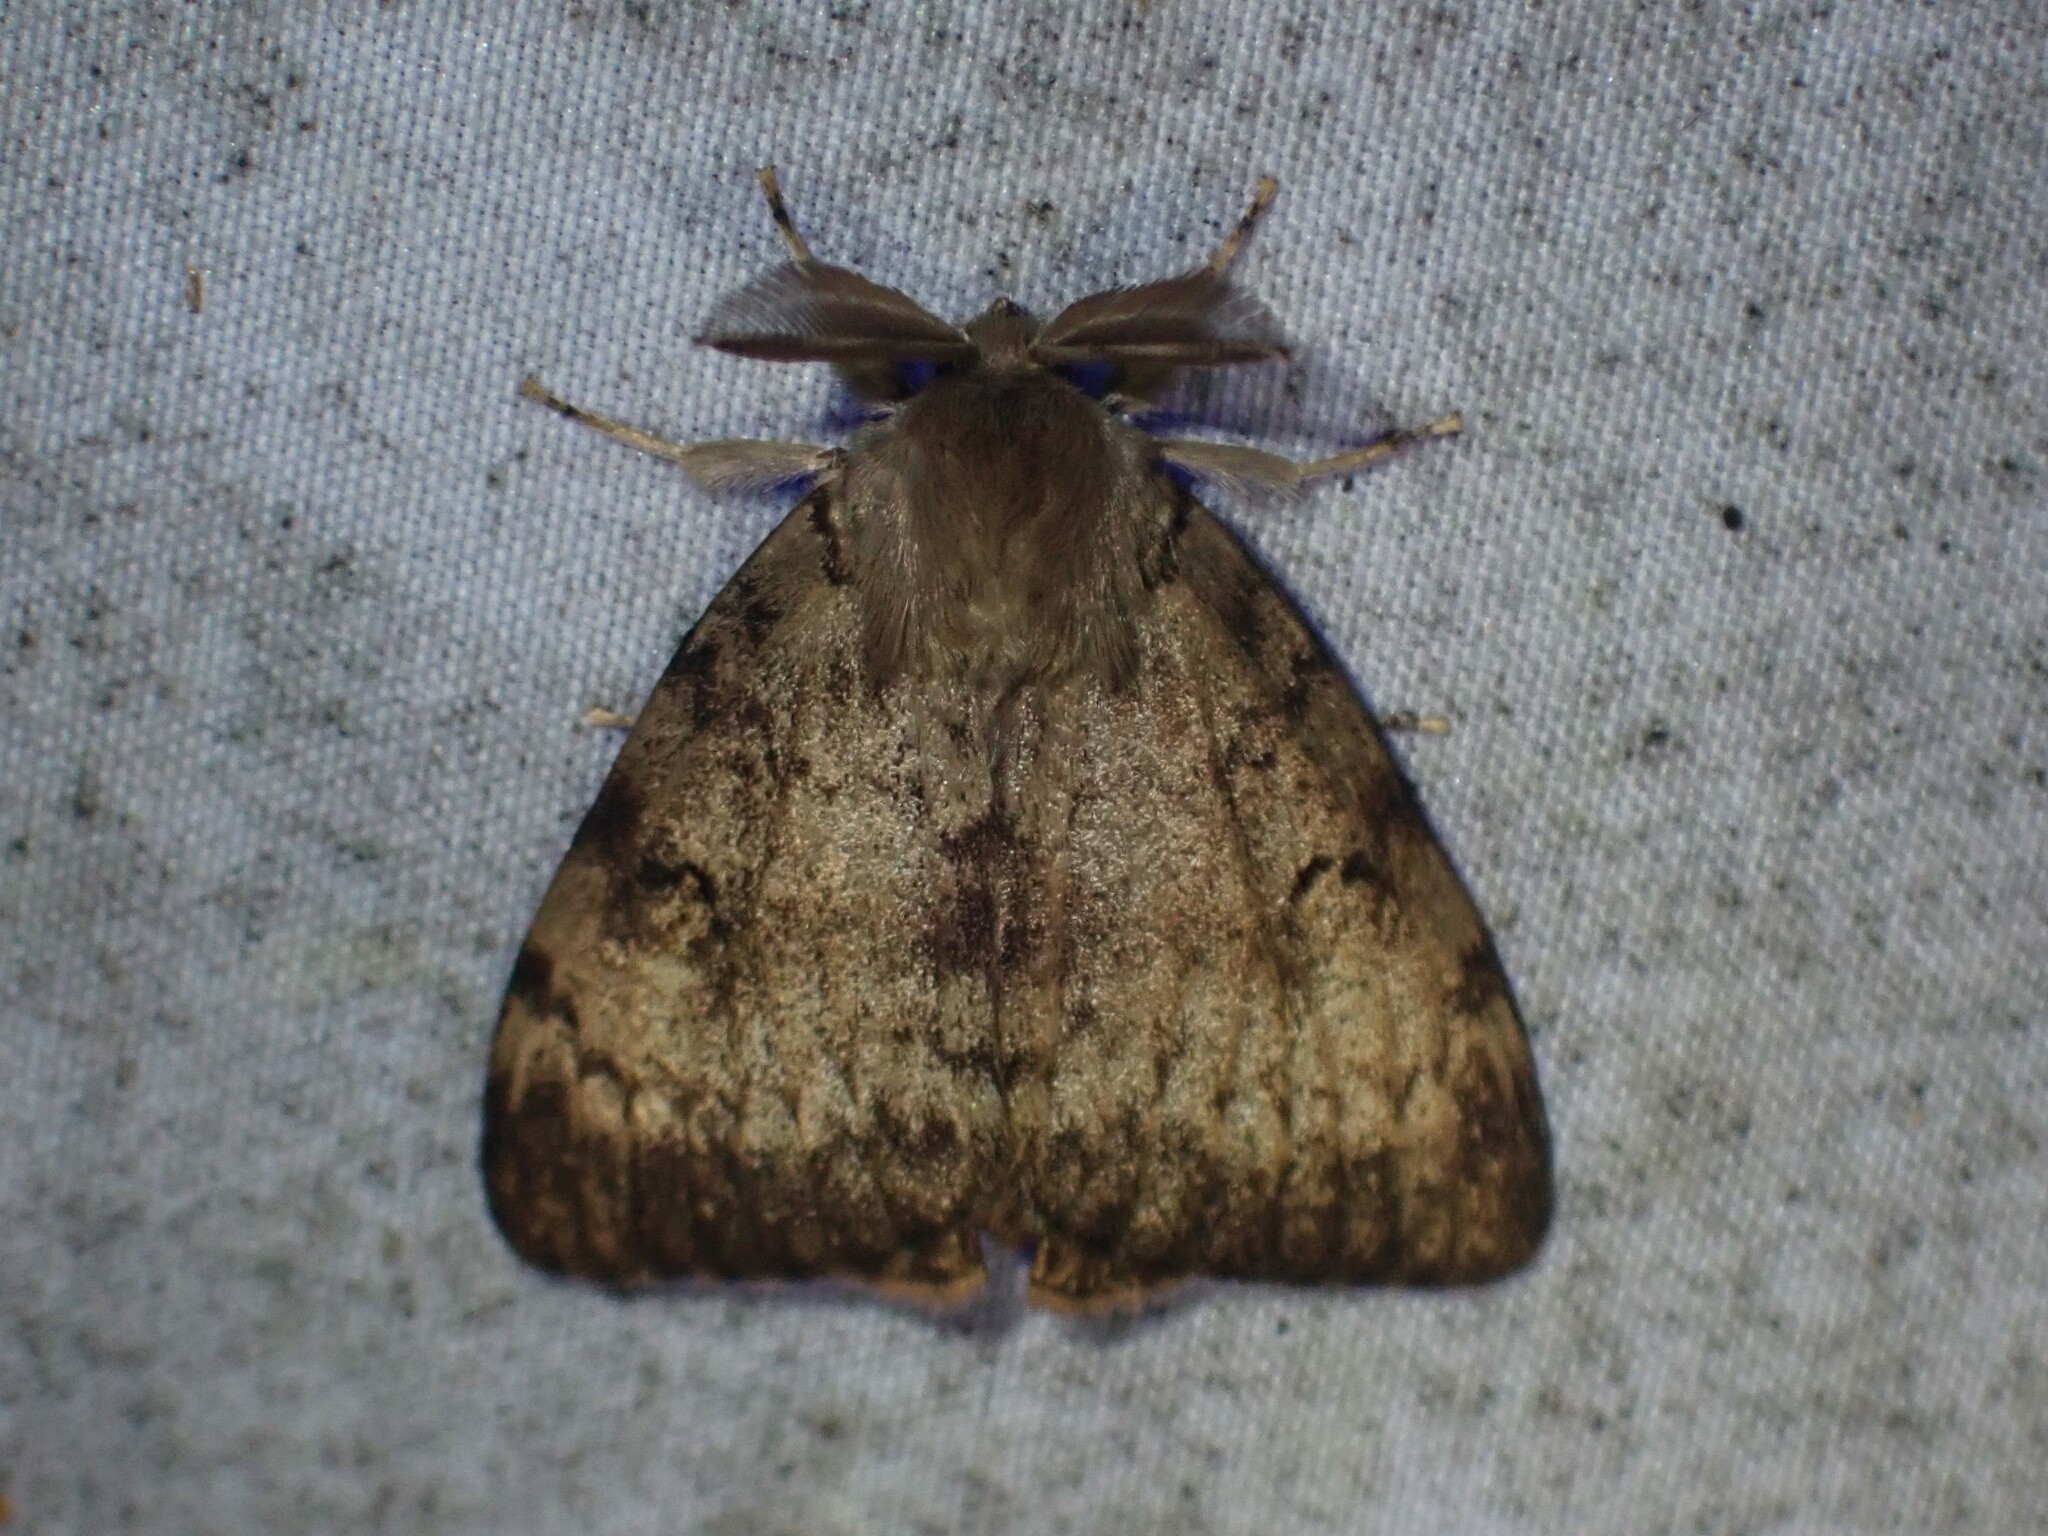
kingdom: Animalia
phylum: Arthropoda
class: Insecta
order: Lepidoptera
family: Erebidae
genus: Lymantria
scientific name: Lymantria dispar
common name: Gypsy moth
